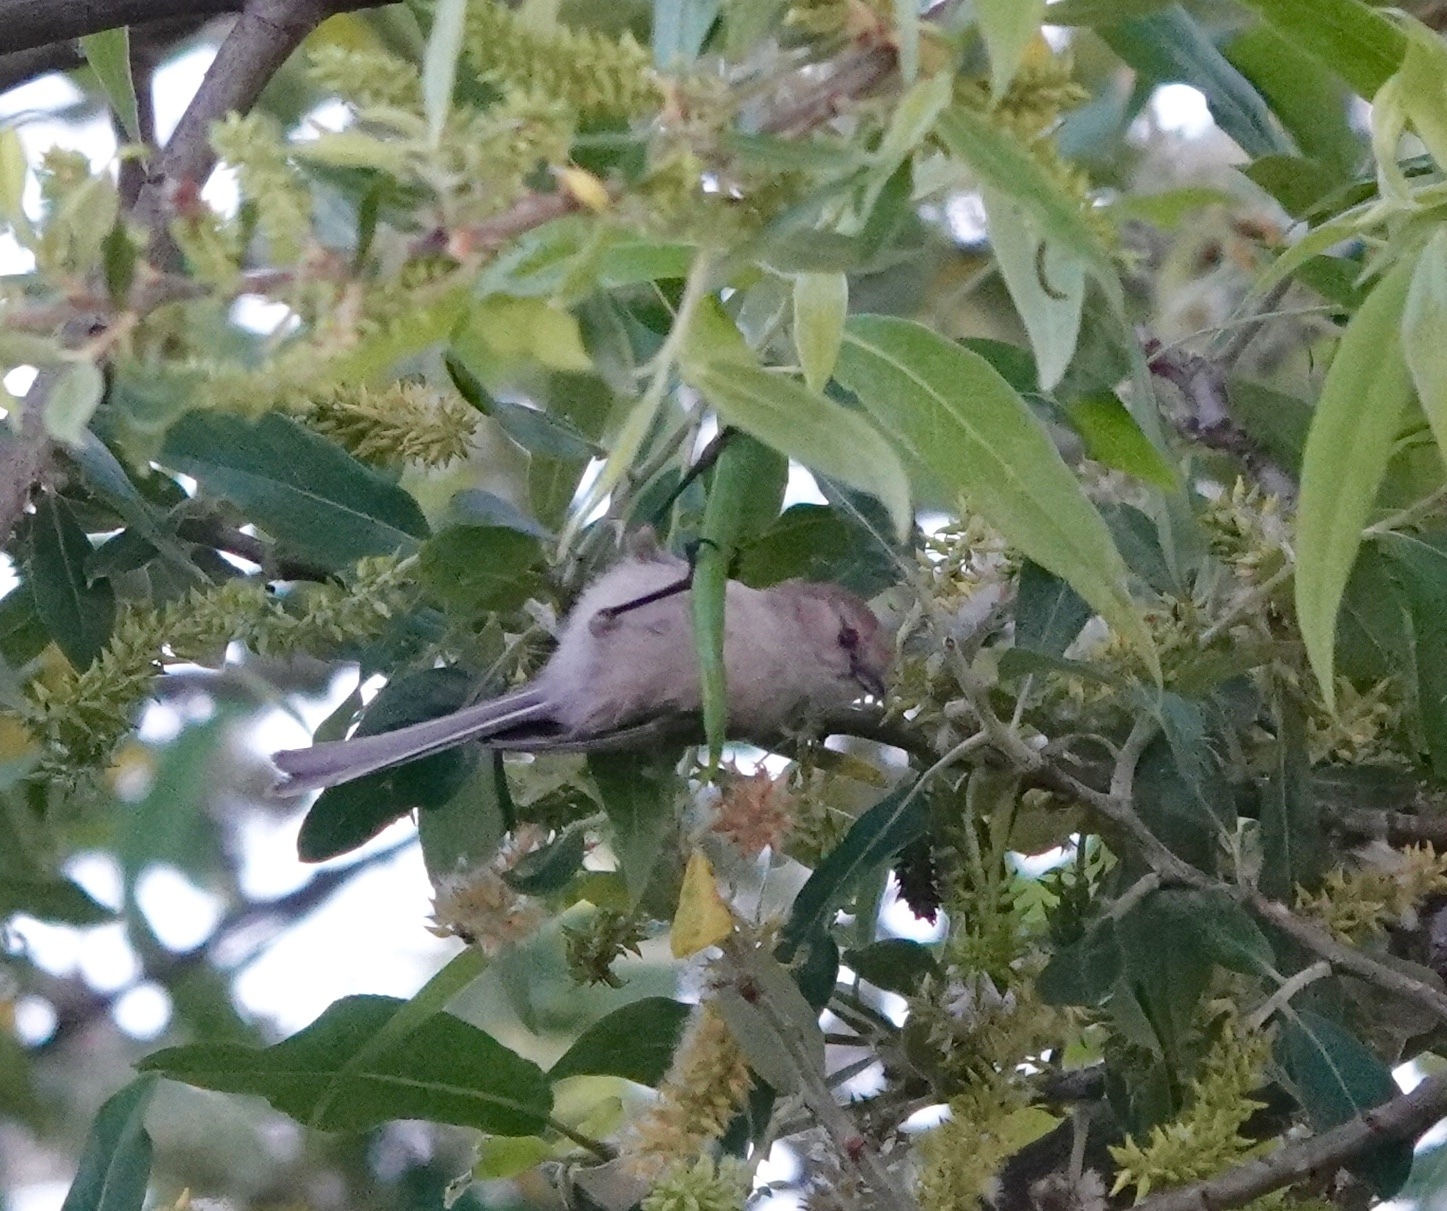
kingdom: Animalia
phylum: Chordata
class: Aves
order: Passeriformes
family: Aegithalidae
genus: Psaltriparus
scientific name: Psaltriparus minimus
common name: American bushtit
